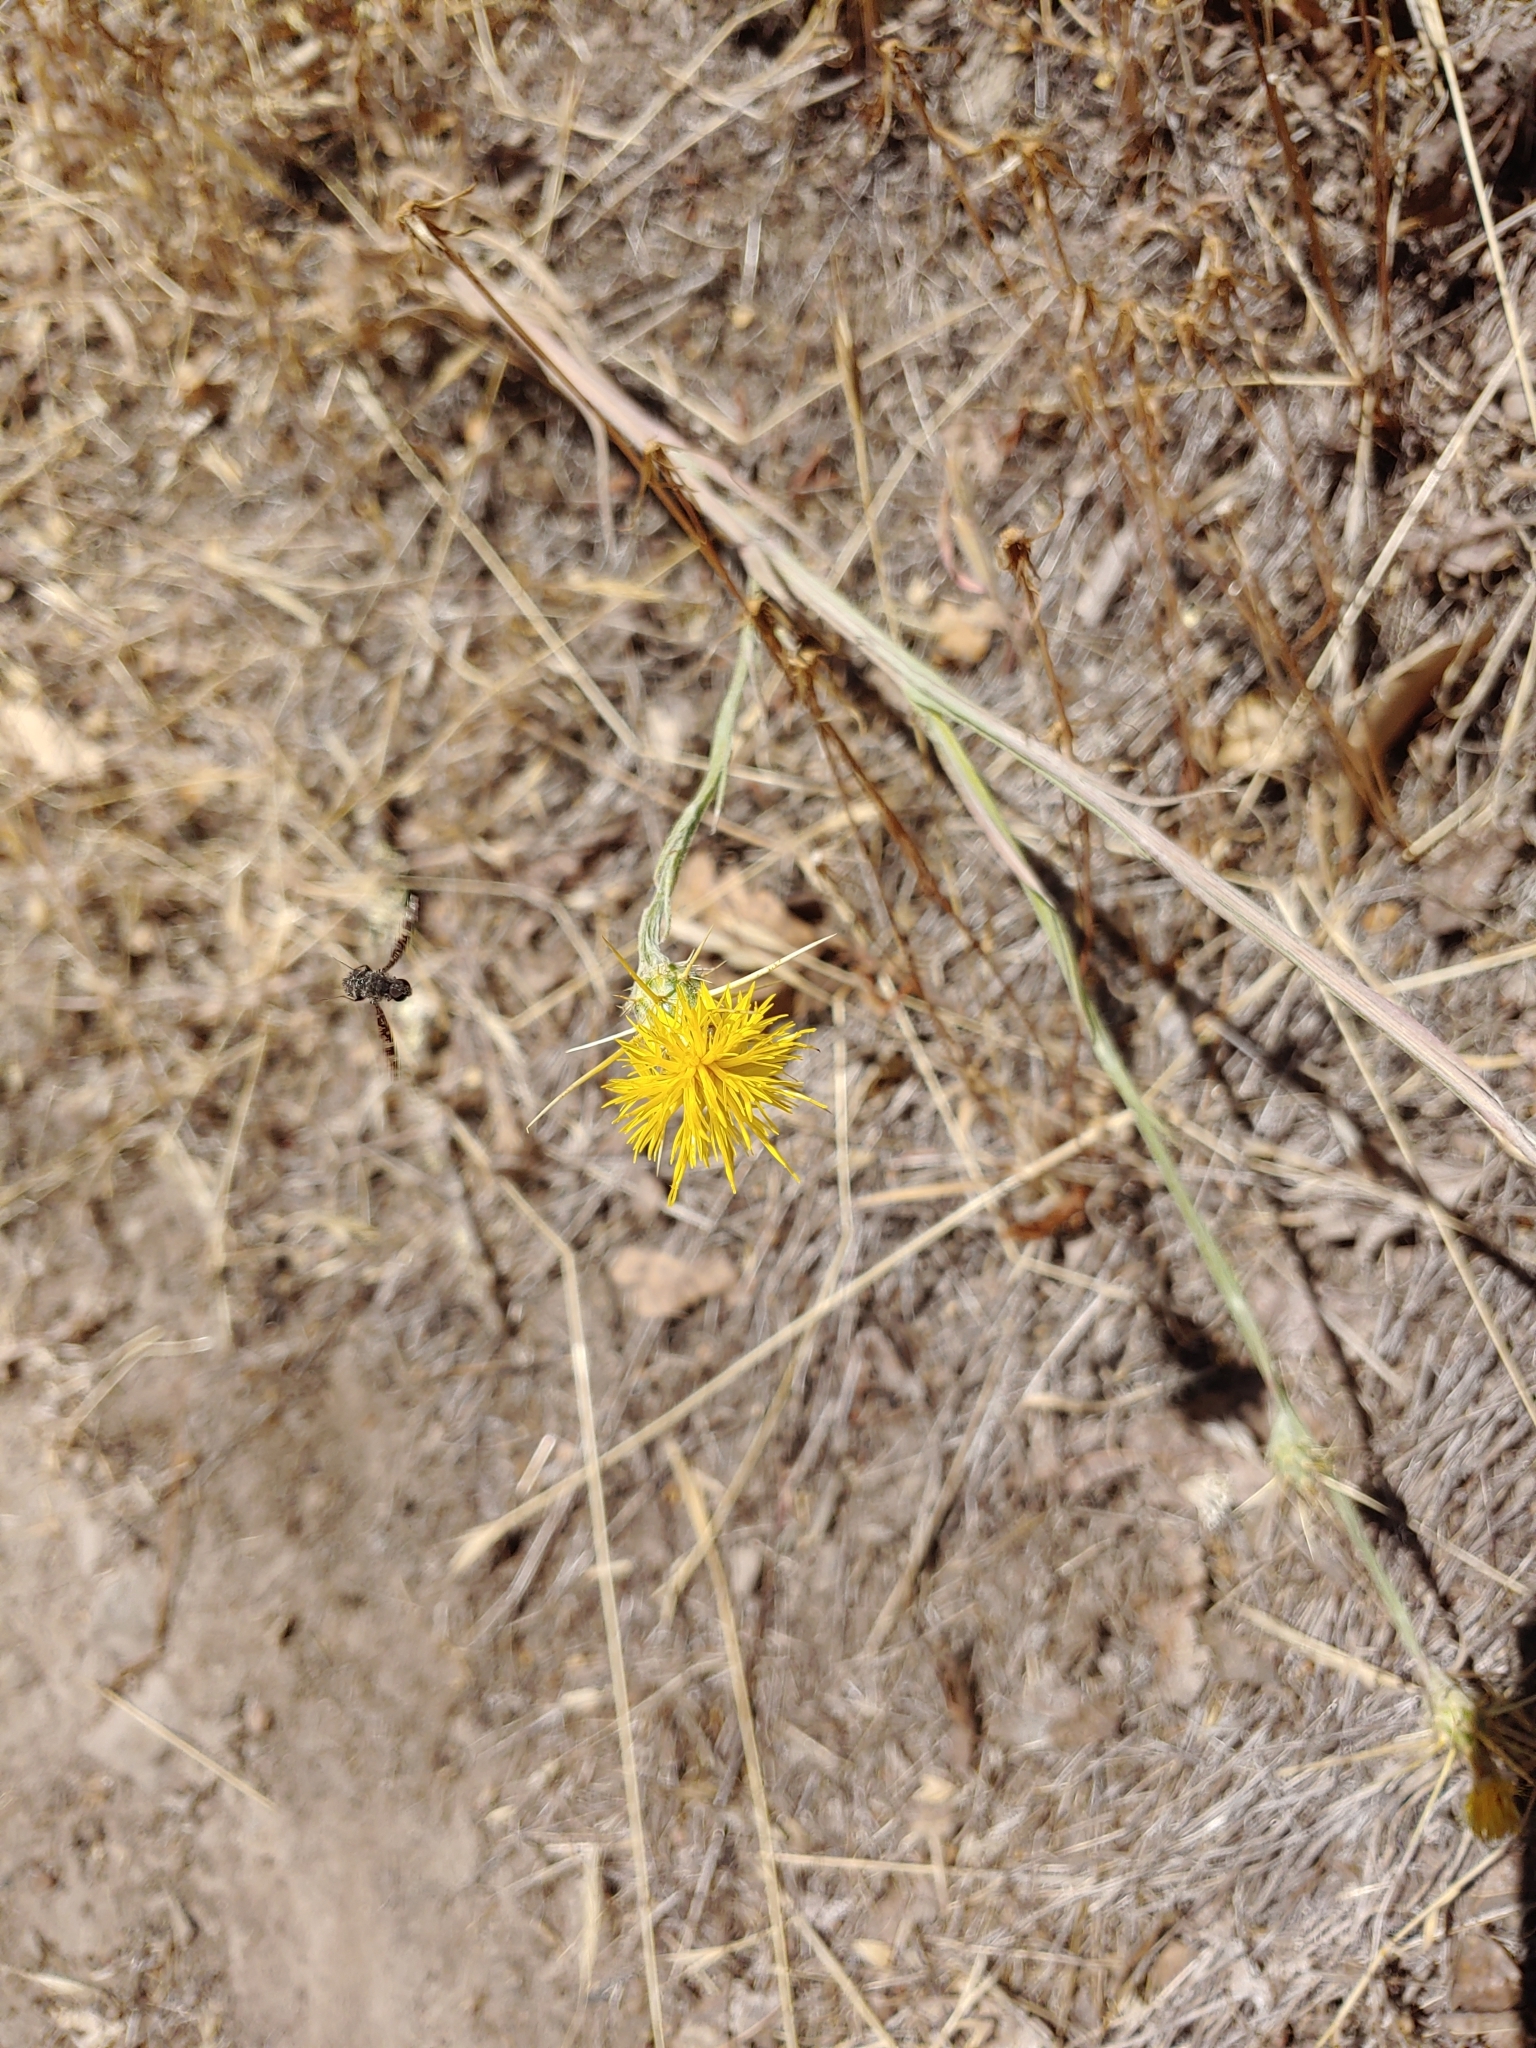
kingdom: Plantae
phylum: Tracheophyta
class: Magnoliopsida
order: Asterales
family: Asteraceae
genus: Centaurea
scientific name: Centaurea solstitialis
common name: Yellow star-thistle
